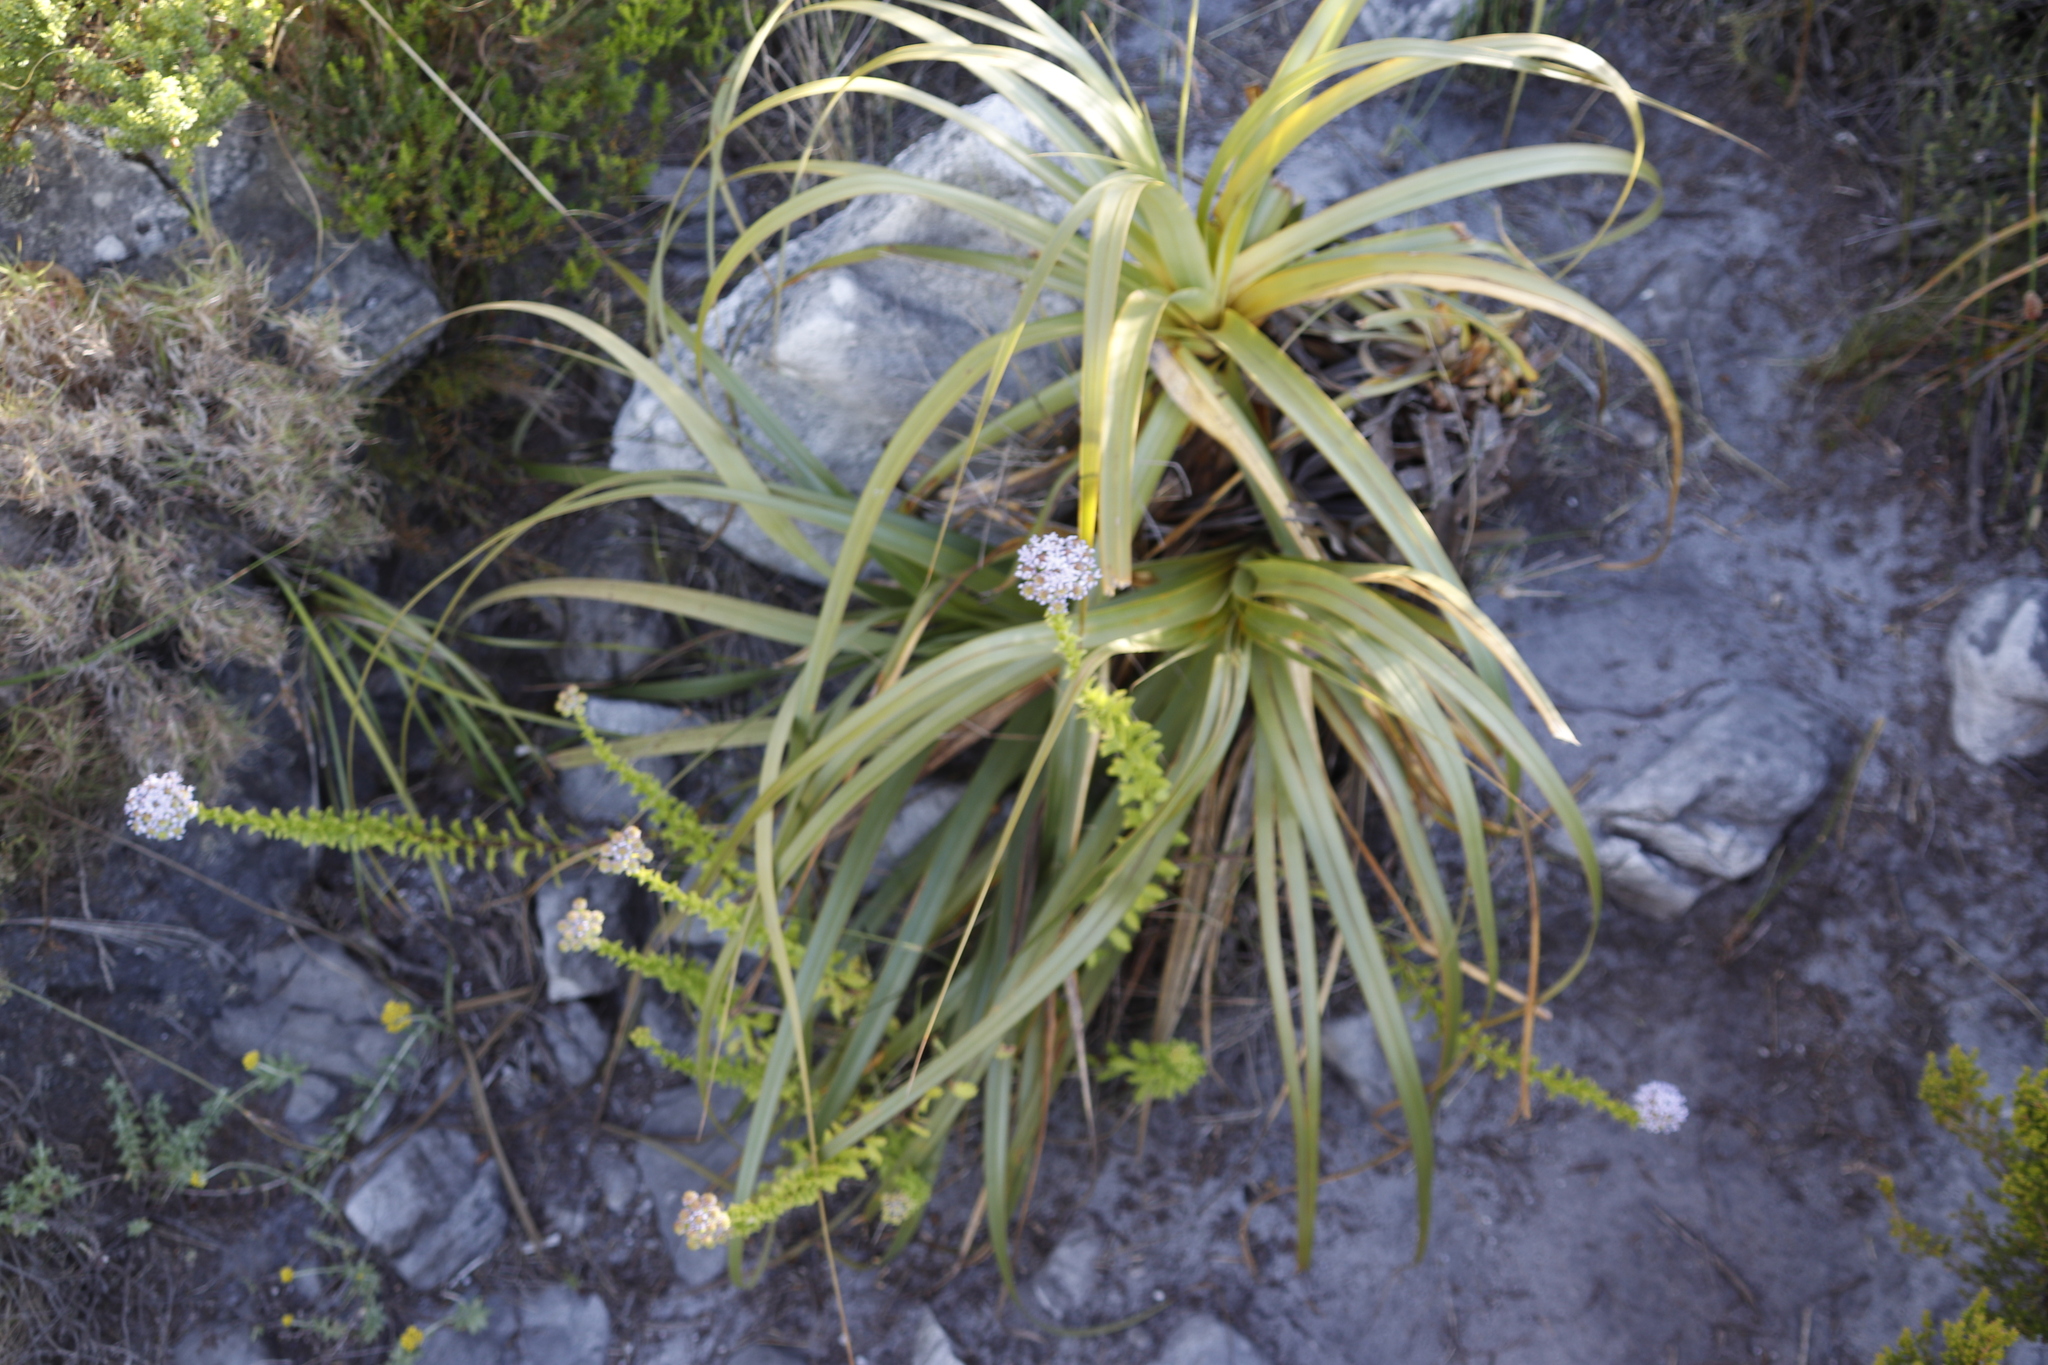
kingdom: Plantae
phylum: Tracheophyta
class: Liliopsida
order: Poales
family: Cyperaceae
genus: Tetraria
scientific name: Tetraria thermalis
